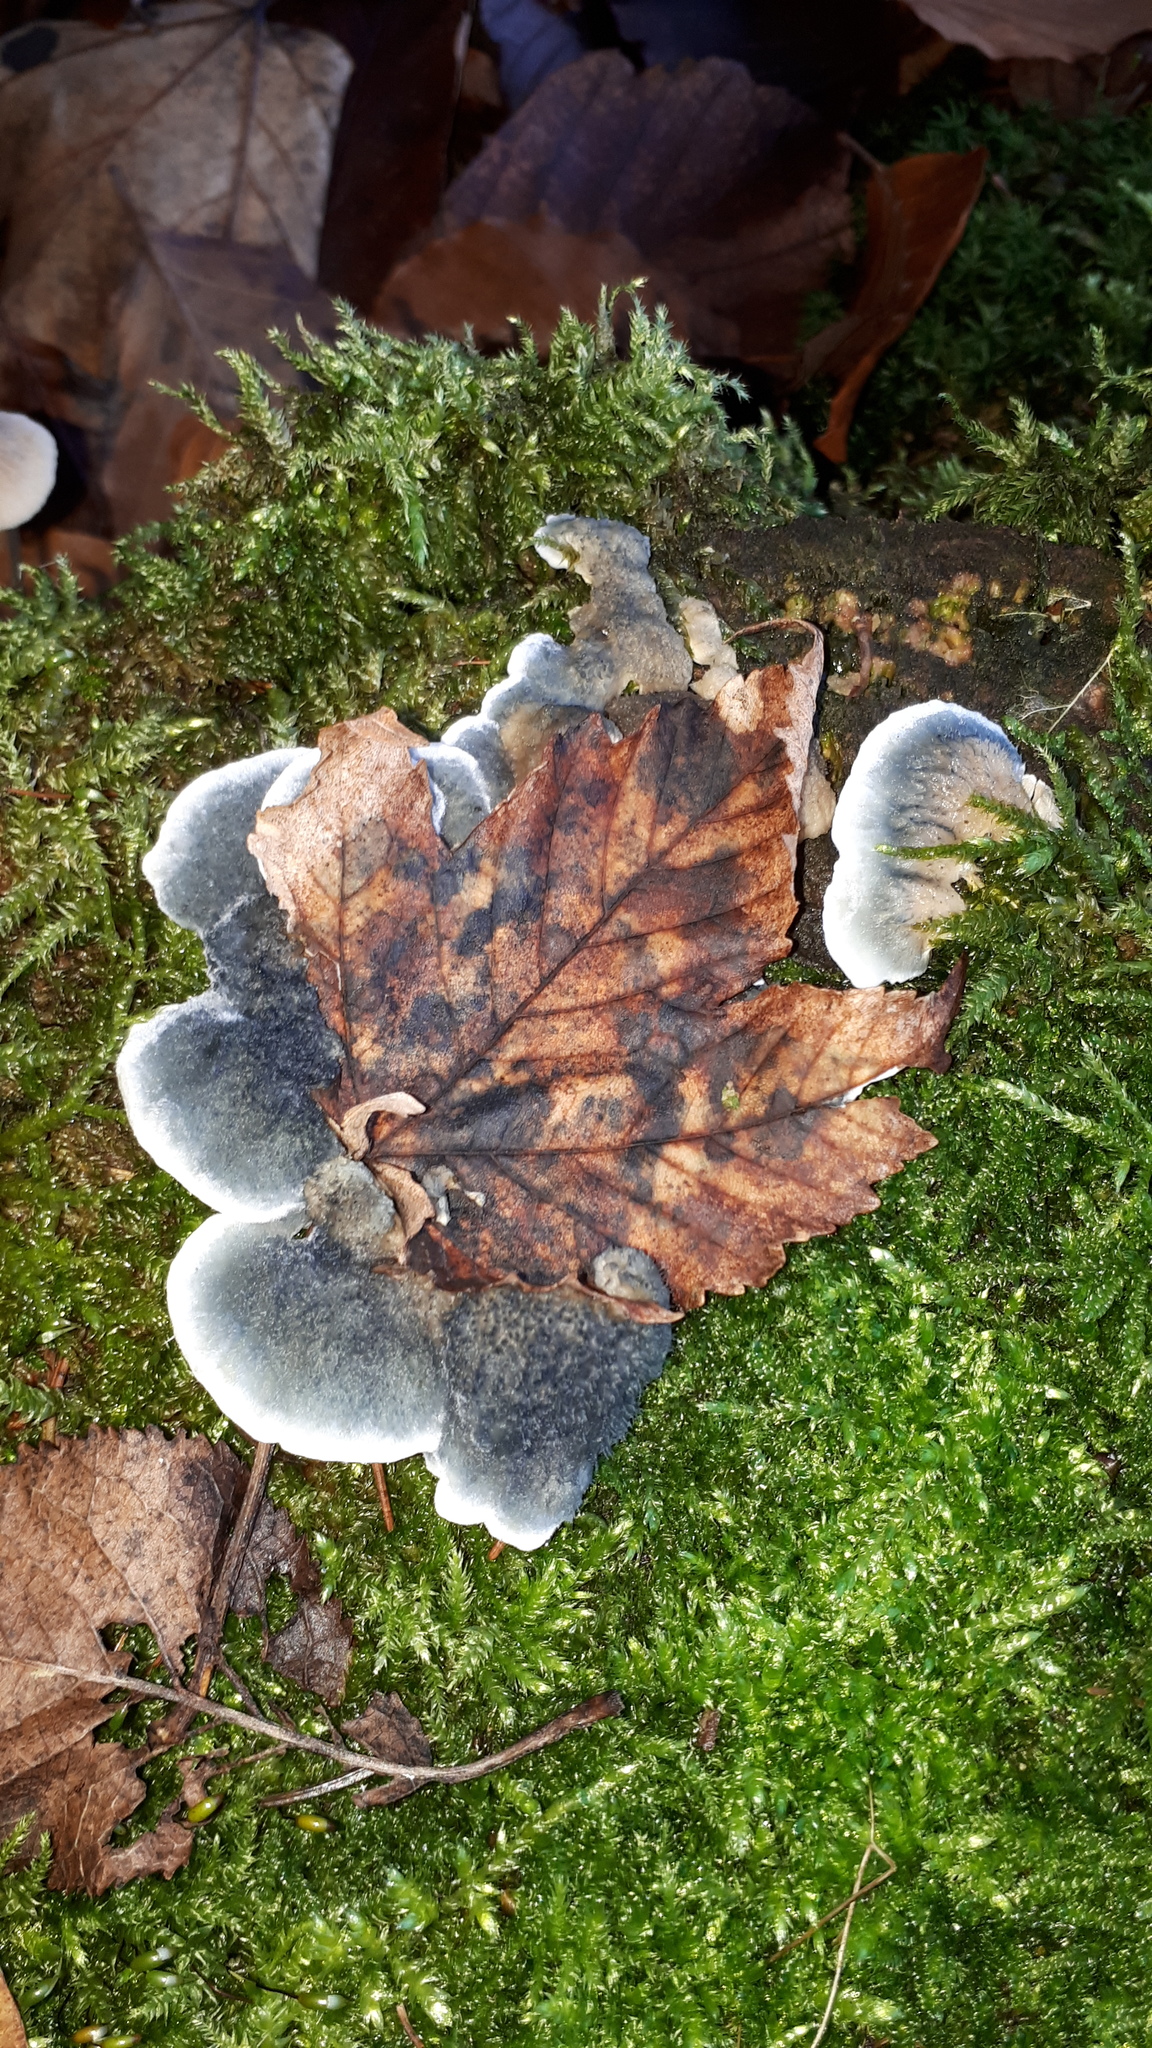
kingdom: Fungi
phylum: Basidiomycota
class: Agaricomycetes
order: Polyporales
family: Polyporaceae
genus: Cyanosporus
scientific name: Cyanosporus caesius
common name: Blue cheese polypore
